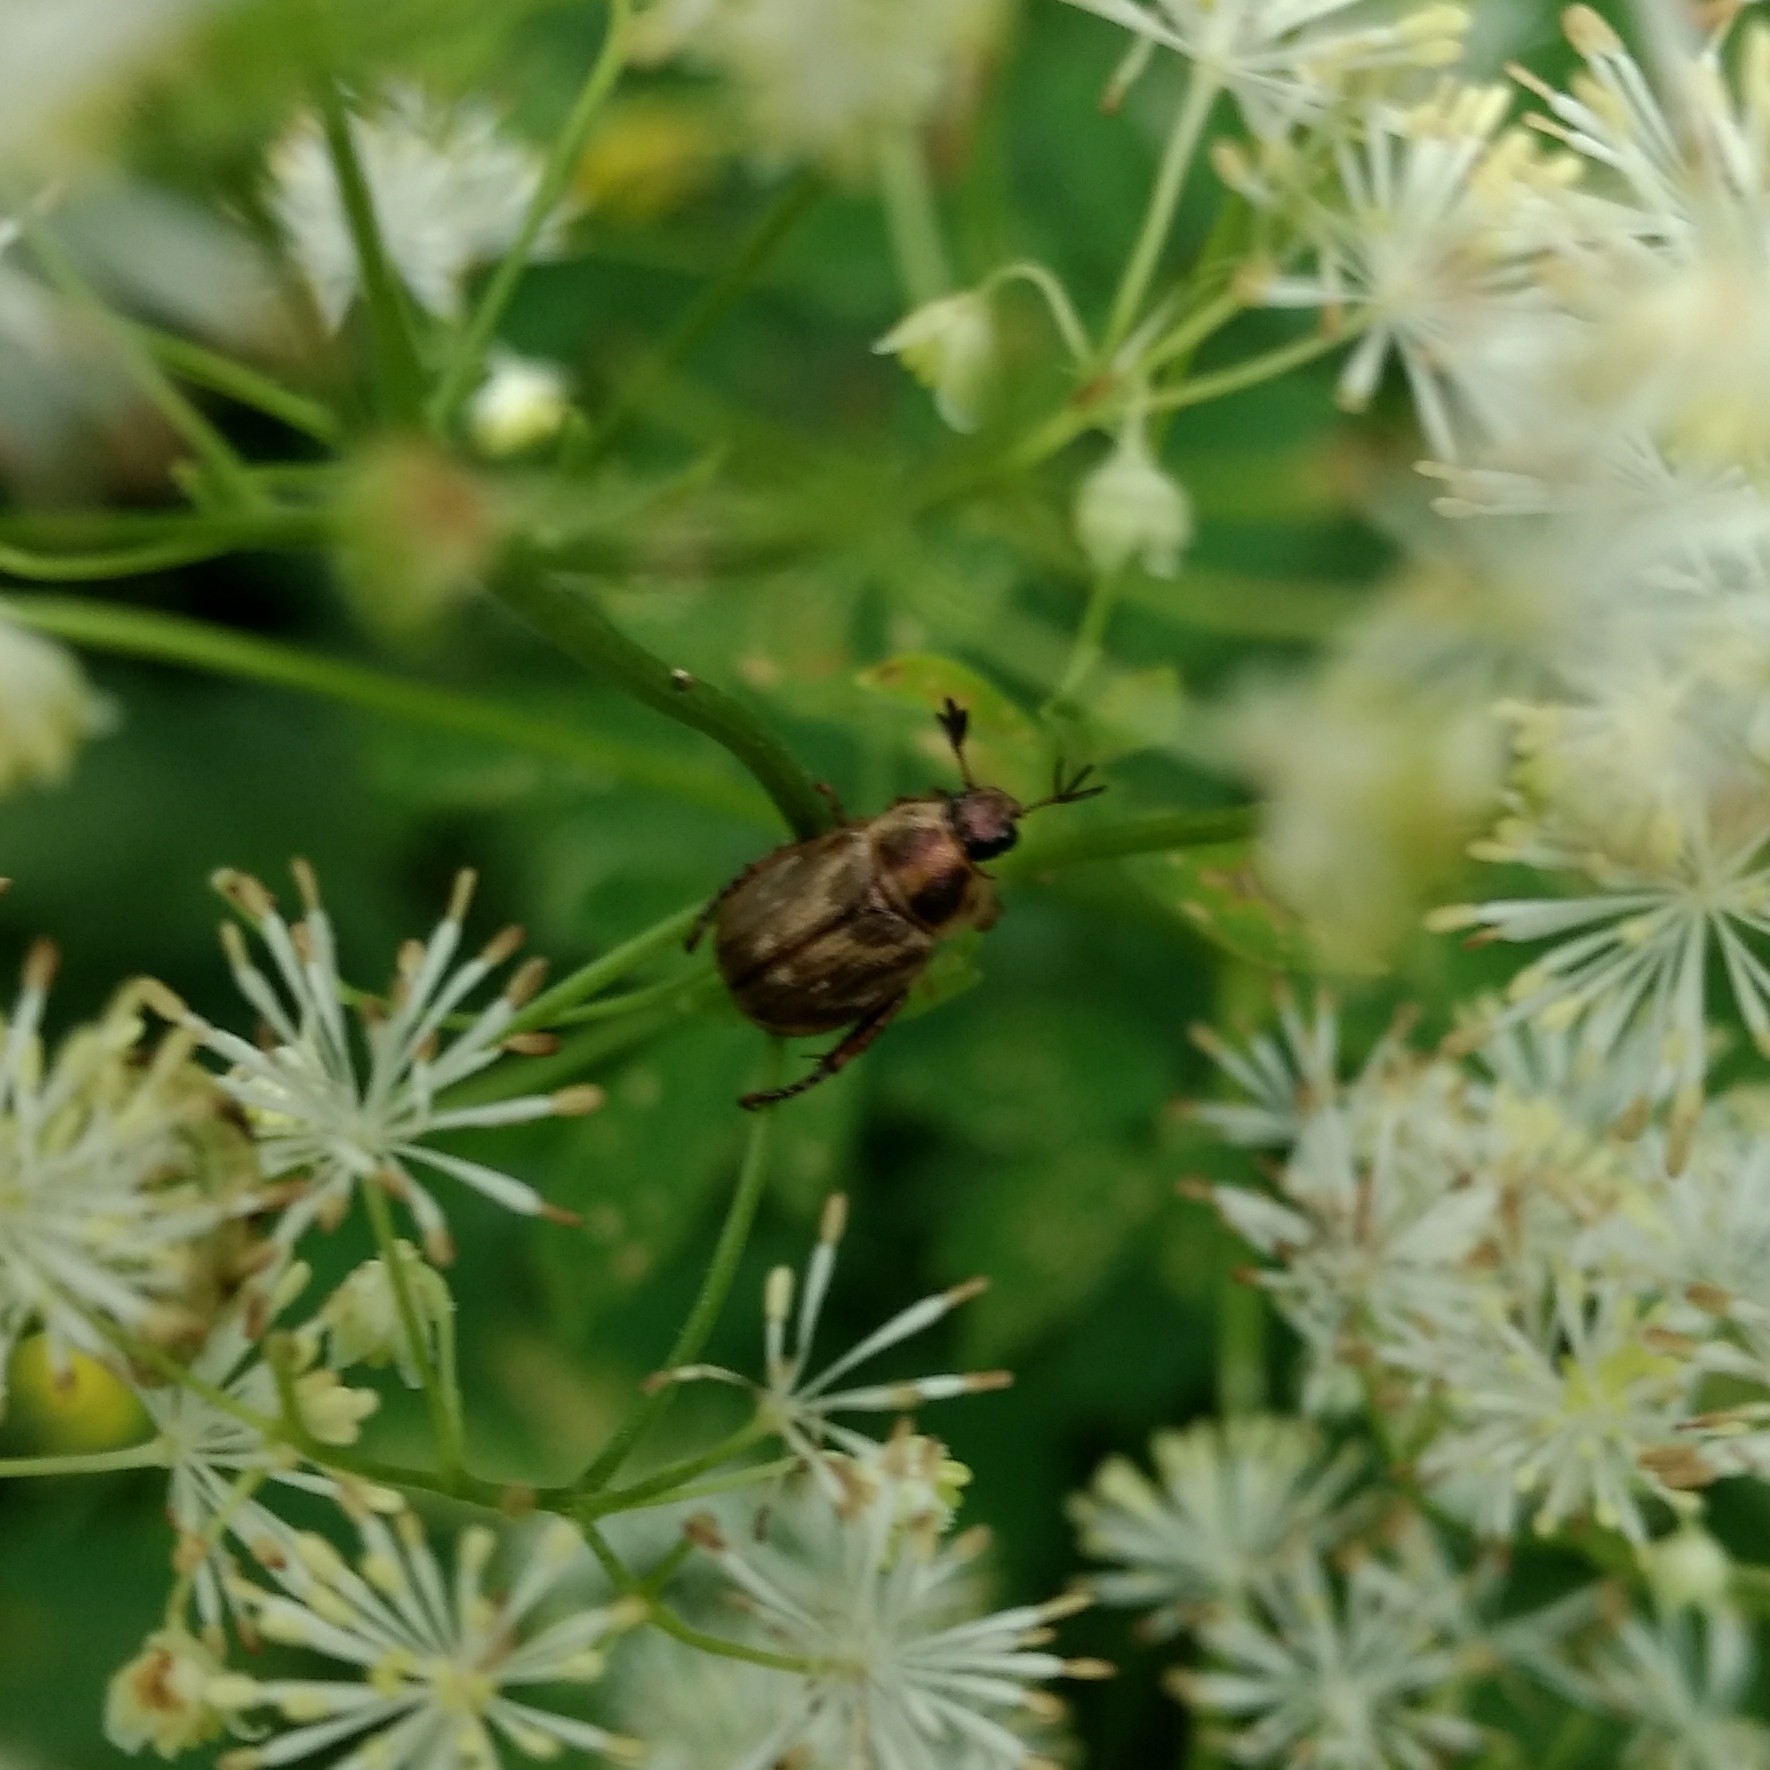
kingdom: Animalia
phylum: Arthropoda
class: Insecta
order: Coleoptera
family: Scarabaeidae
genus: Exomala
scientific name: Exomala orientalis
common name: Oriental beetle
